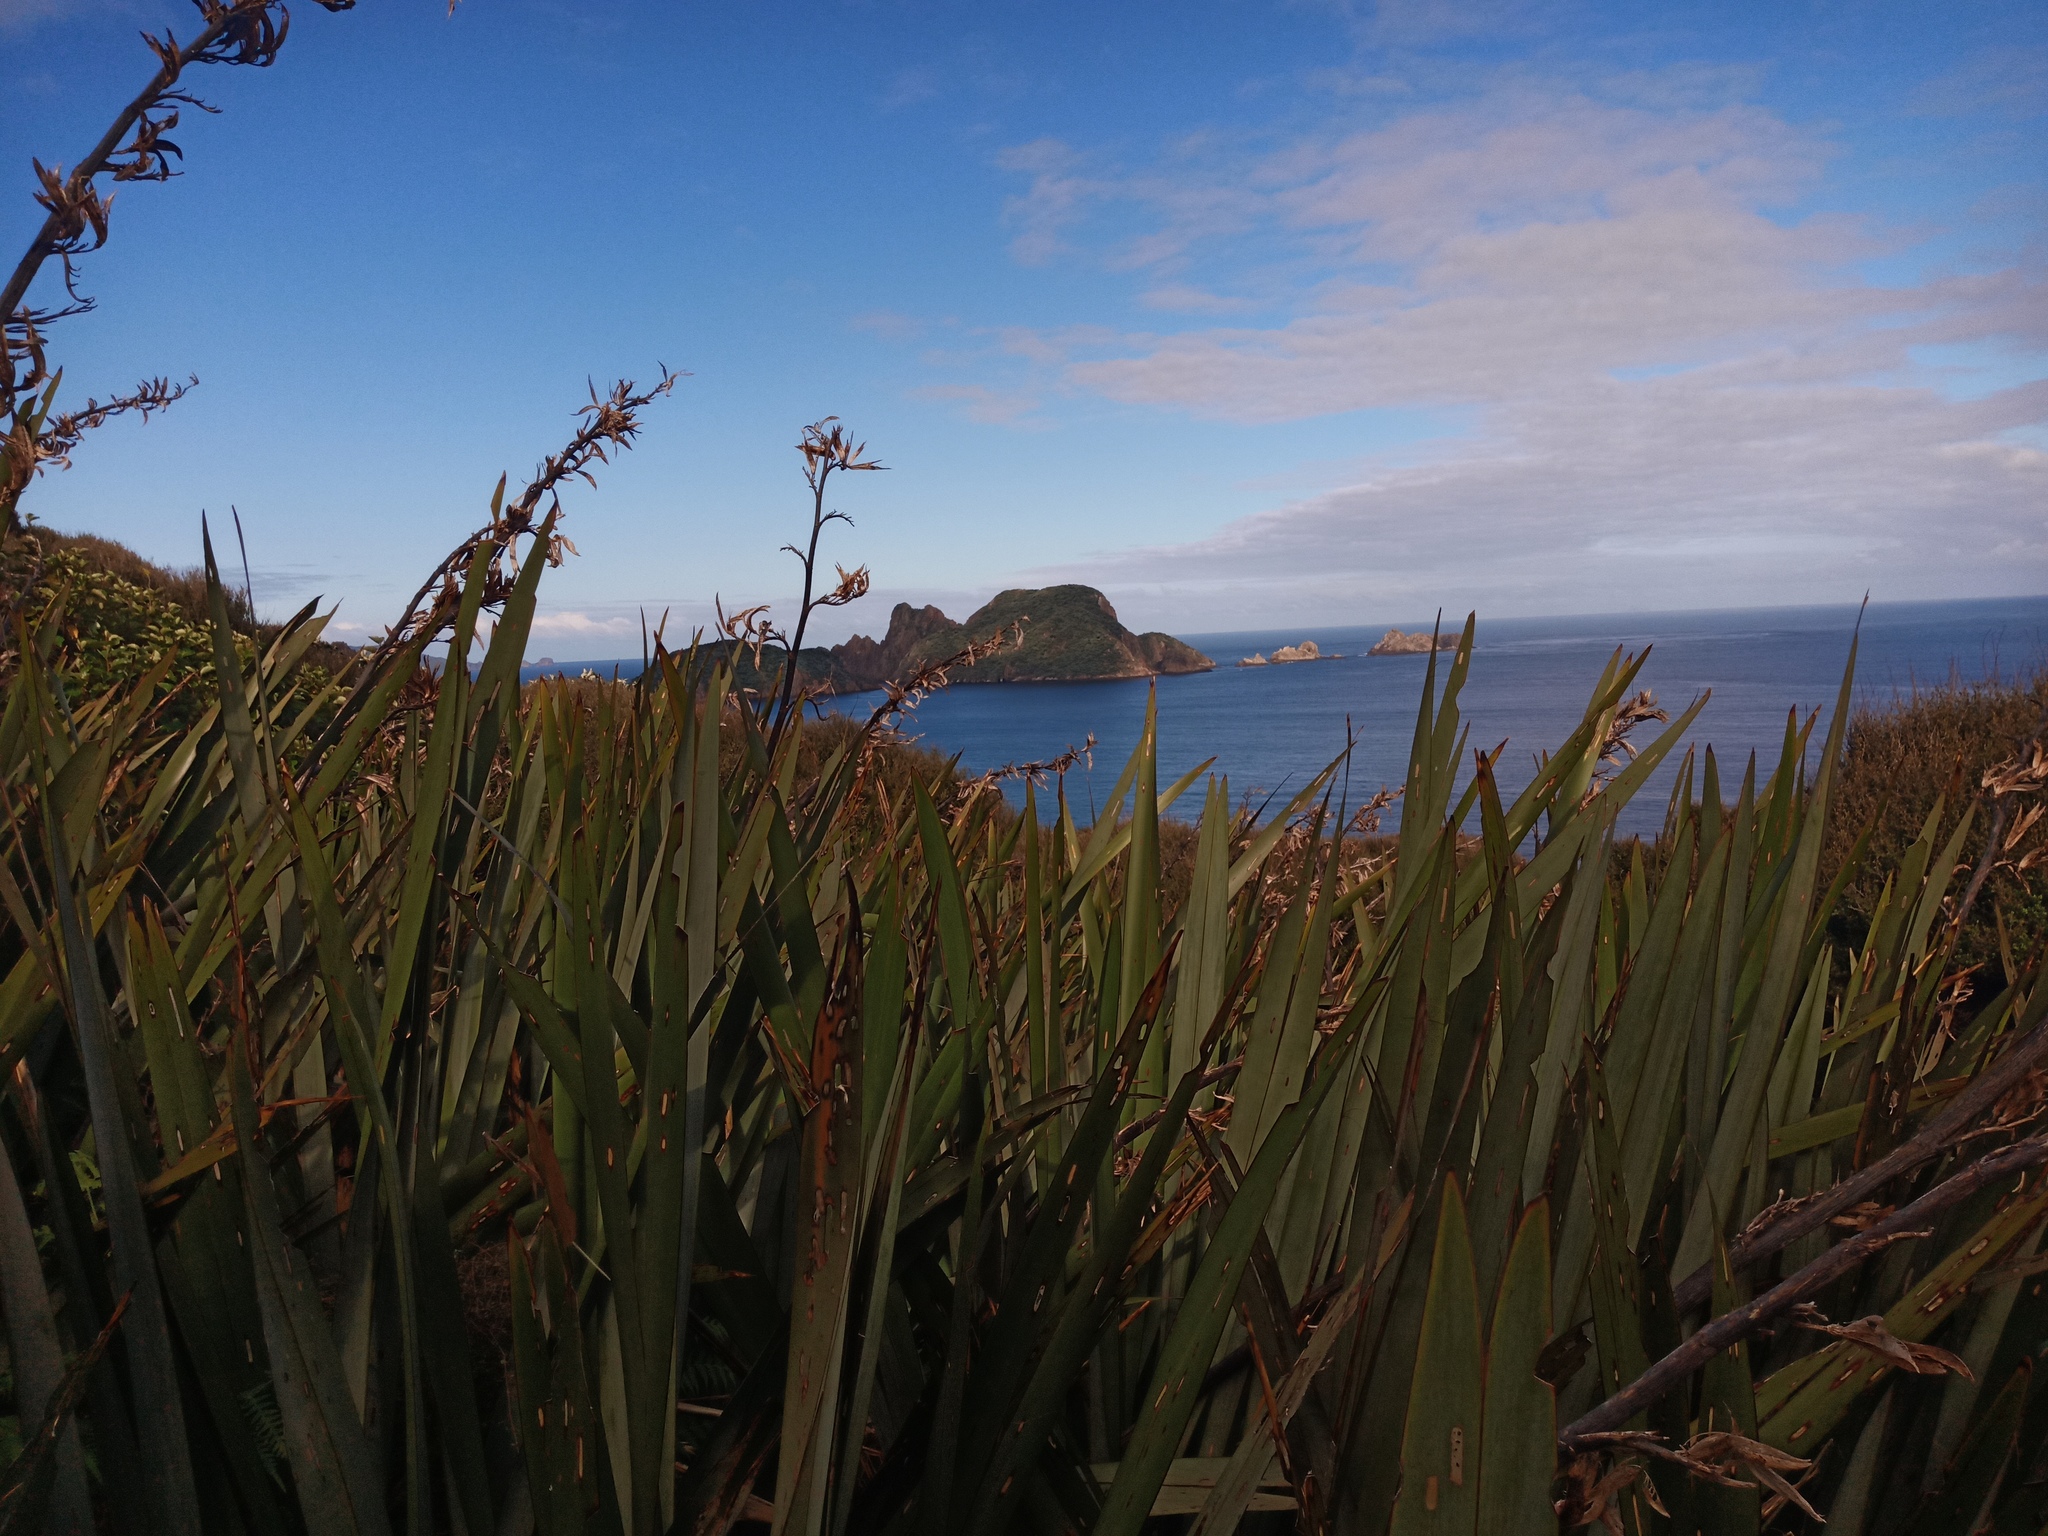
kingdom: Plantae
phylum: Tracheophyta
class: Liliopsida
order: Asparagales
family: Asphodelaceae
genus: Phormium
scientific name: Phormium tenax
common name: New zealand flax
